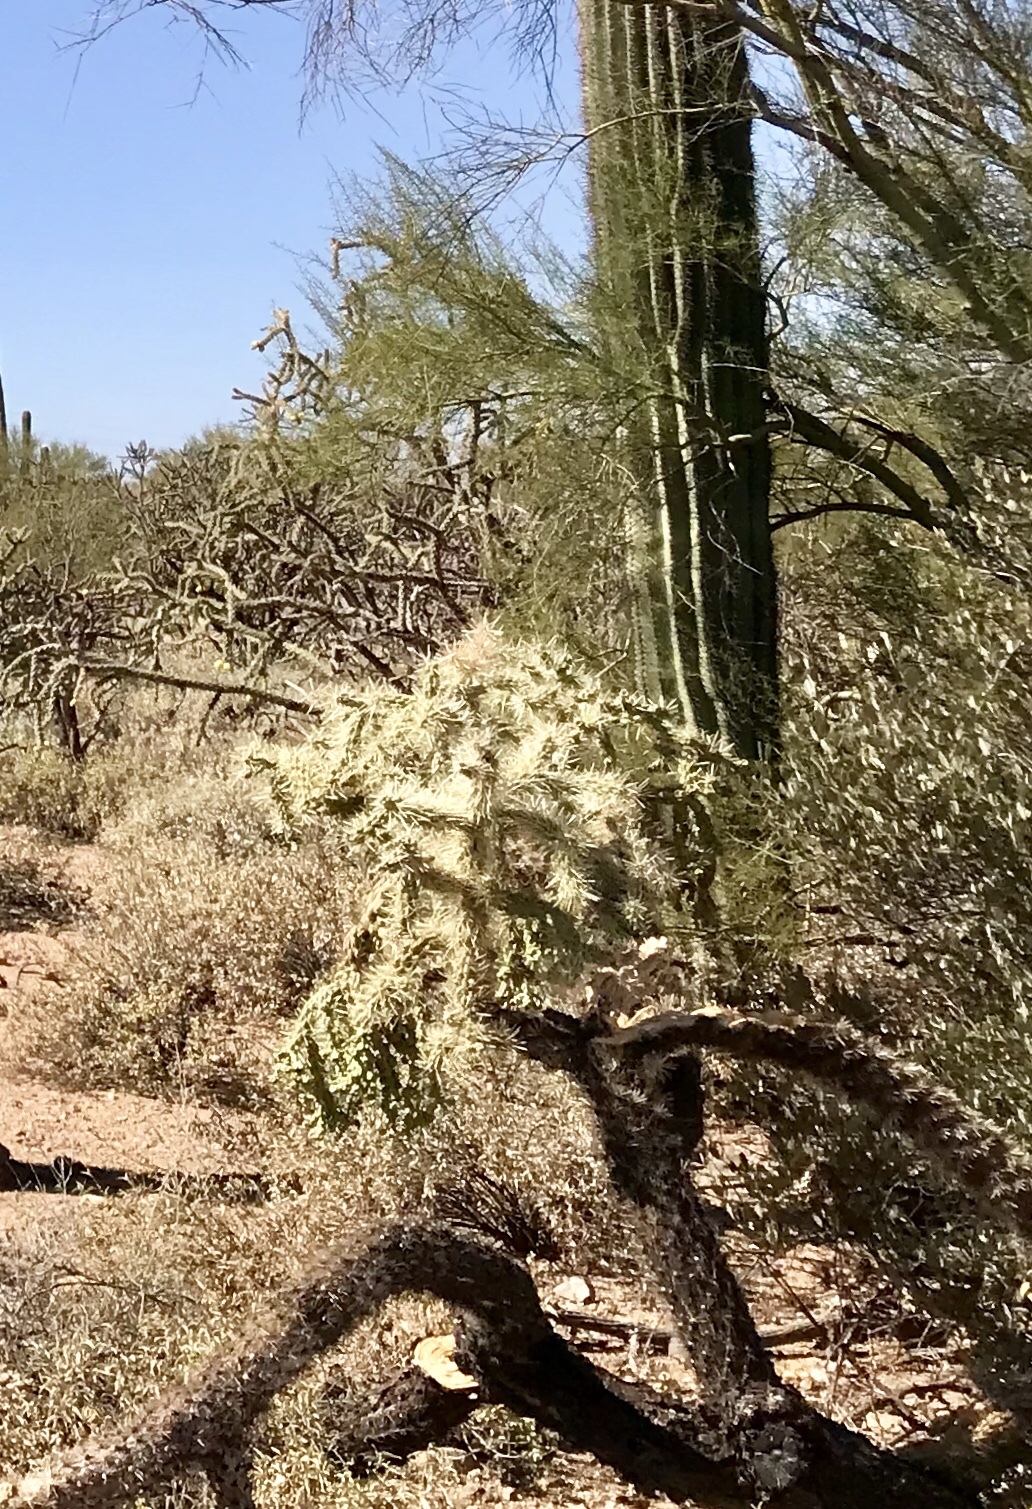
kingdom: Plantae
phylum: Tracheophyta
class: Magnoliopsida
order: Caryophyllales
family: Cactaceae
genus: Cylindropuntia
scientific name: Cylindropuntia fulgida
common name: Jumping cholla
